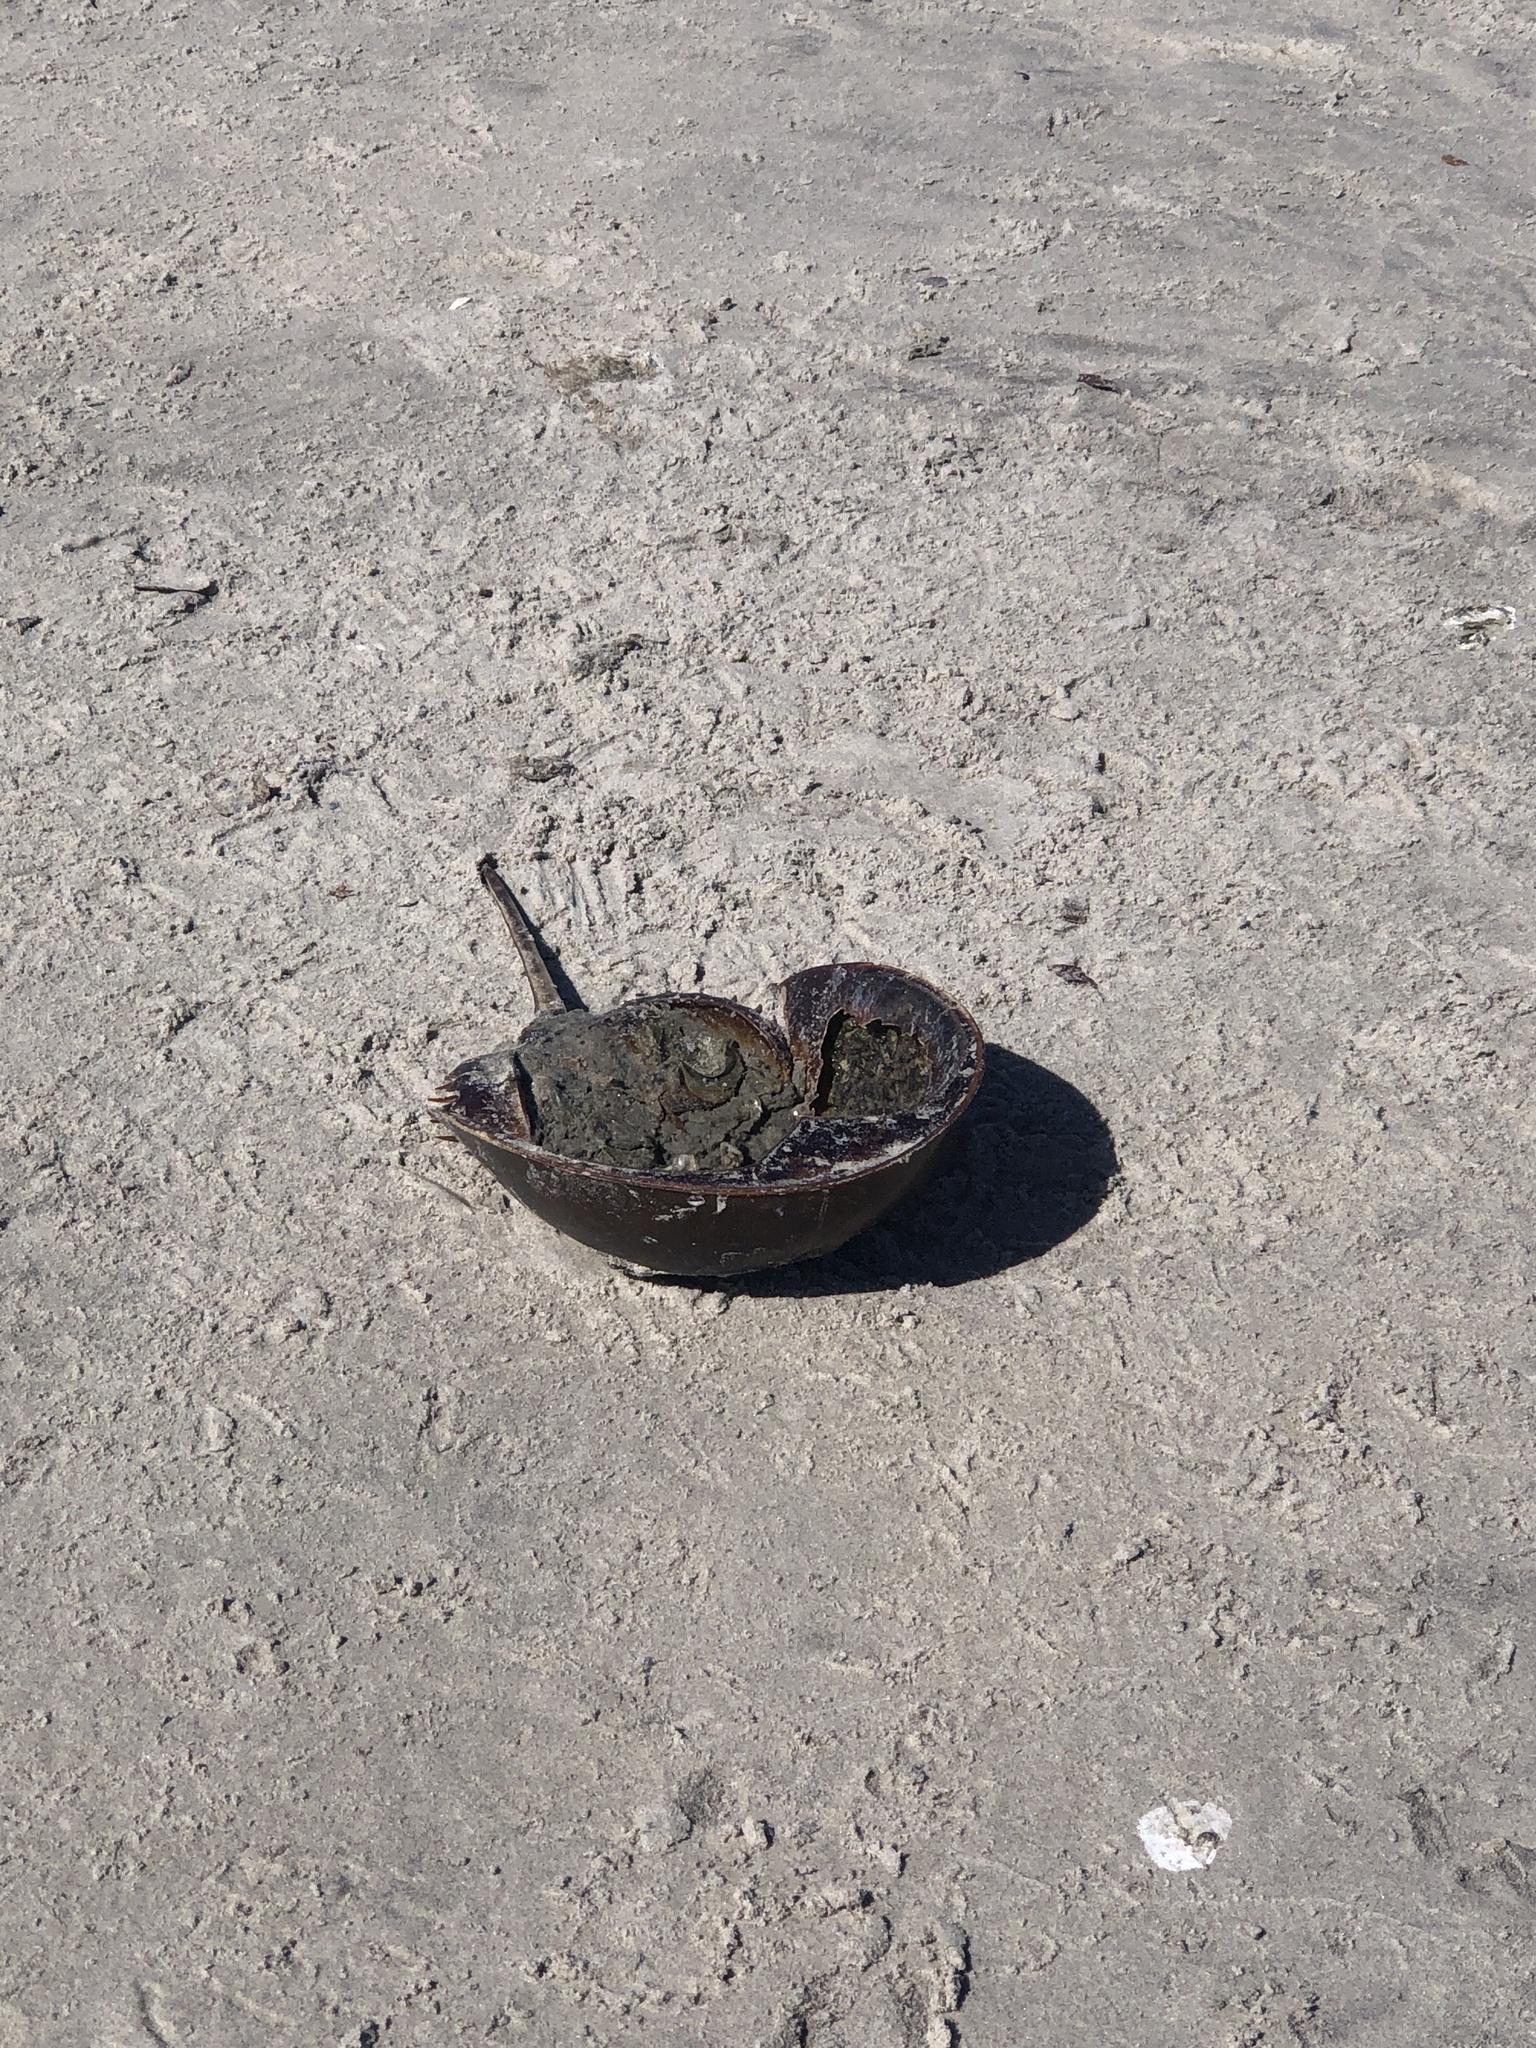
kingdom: Animalia
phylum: Arthropoda
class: Merostomata
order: Xiphosurida
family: Limulidae
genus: Limulus
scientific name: Limulus polyphemus
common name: Horseshoe crab
